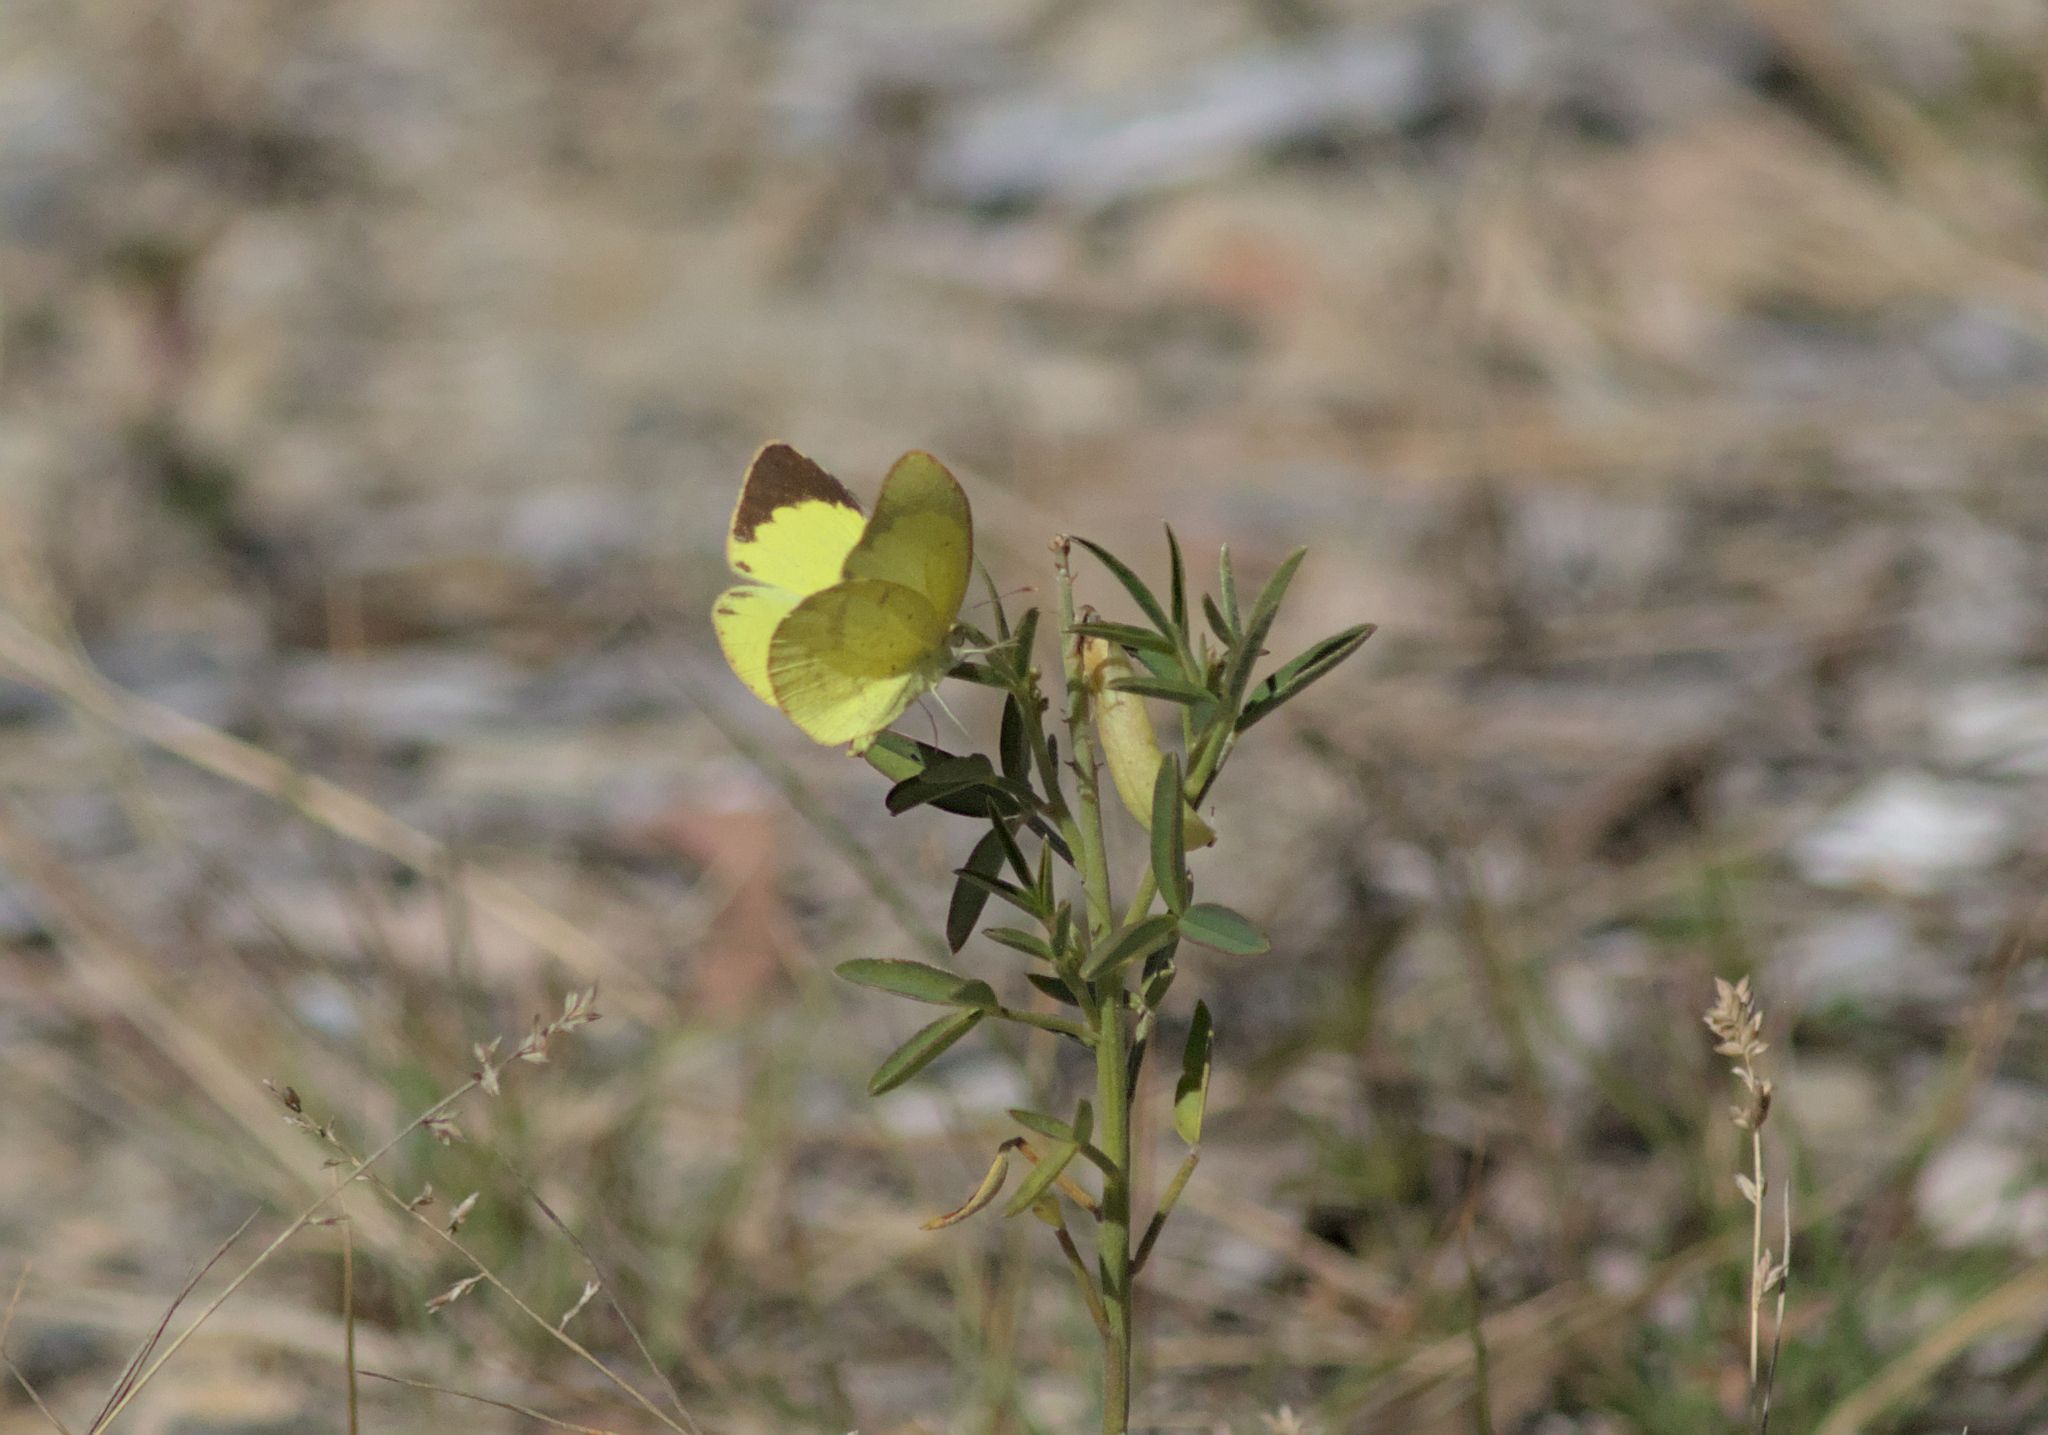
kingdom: Animalia
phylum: Arthropoda
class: Insecta
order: Lepidoptera
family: Pieridae
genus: Eurema
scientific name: Eurema brigitta
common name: Small grass yellow
